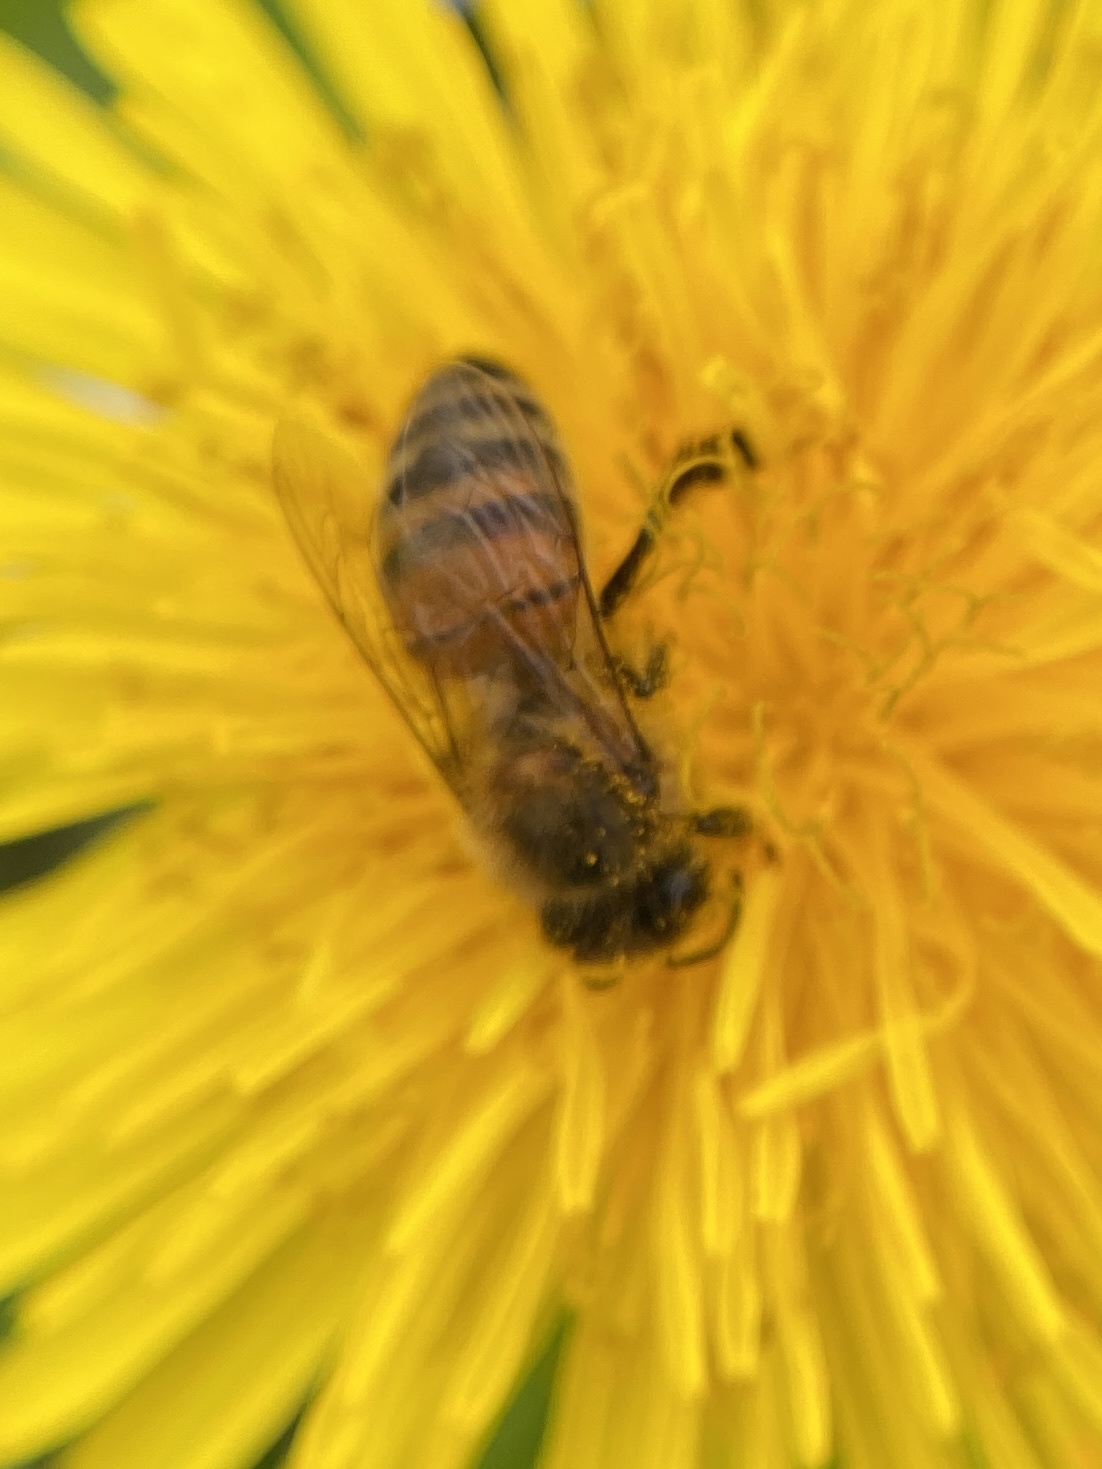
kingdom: Animalia
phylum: Arthropoda
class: Insecta
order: Hymenoptera
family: Apidae
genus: Apis
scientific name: Apis mellifera
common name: Honey bee
